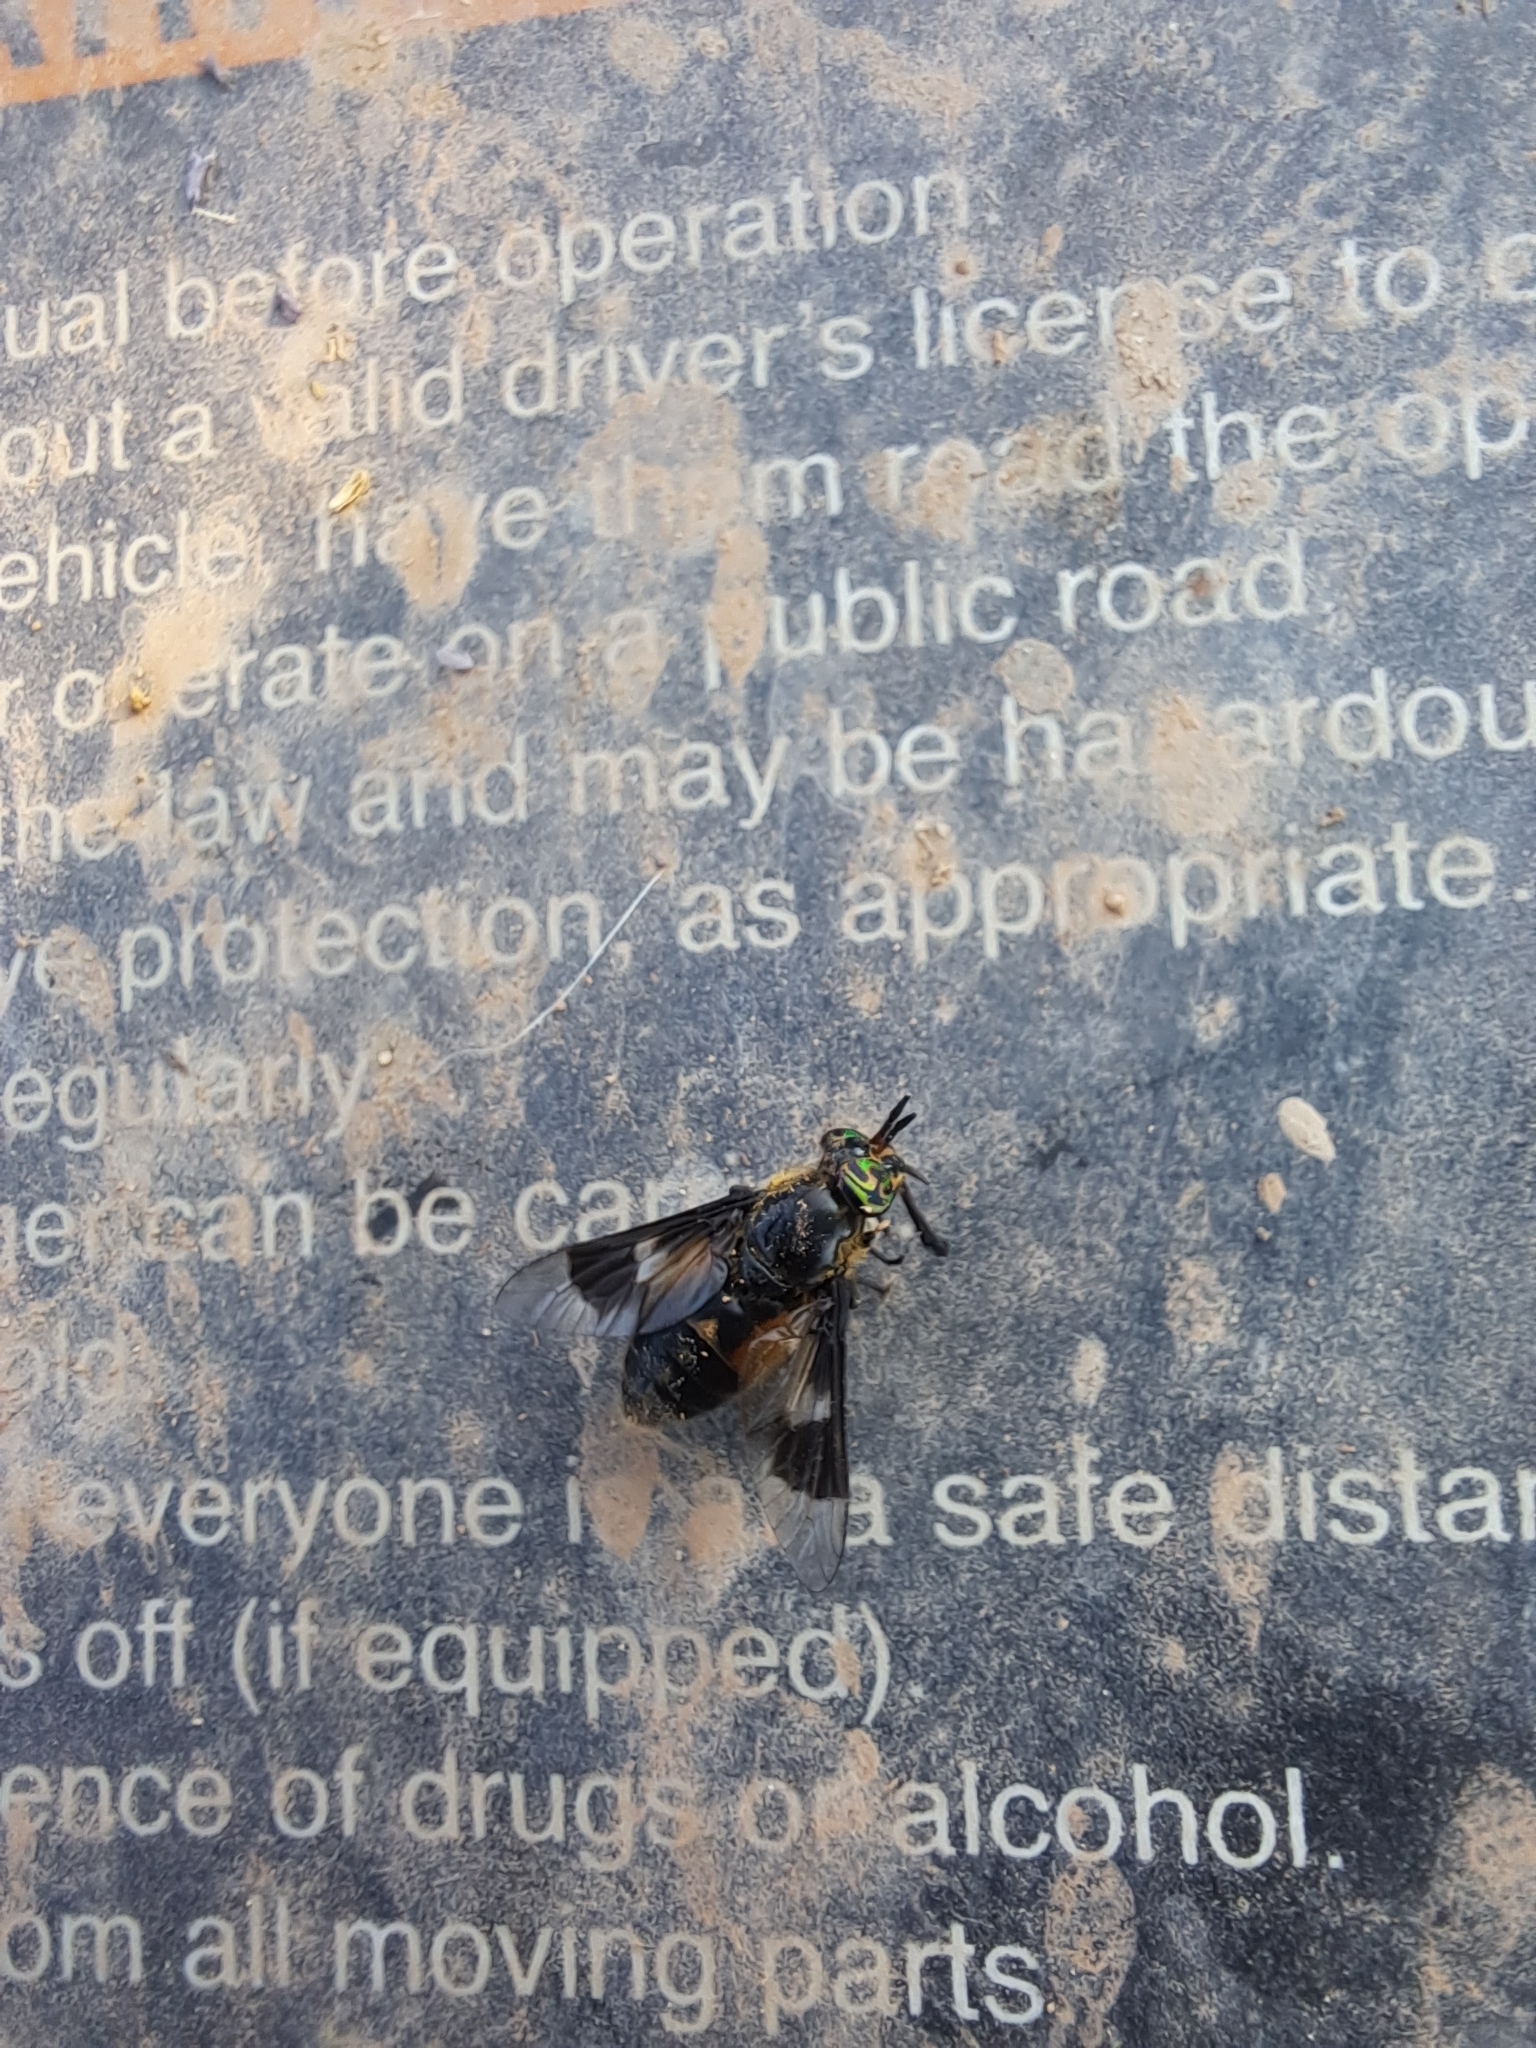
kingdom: Animalia
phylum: Arthropoda
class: Insecta
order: Diptera
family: Tabanidae
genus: Chrysops
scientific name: Chrysops excitans
